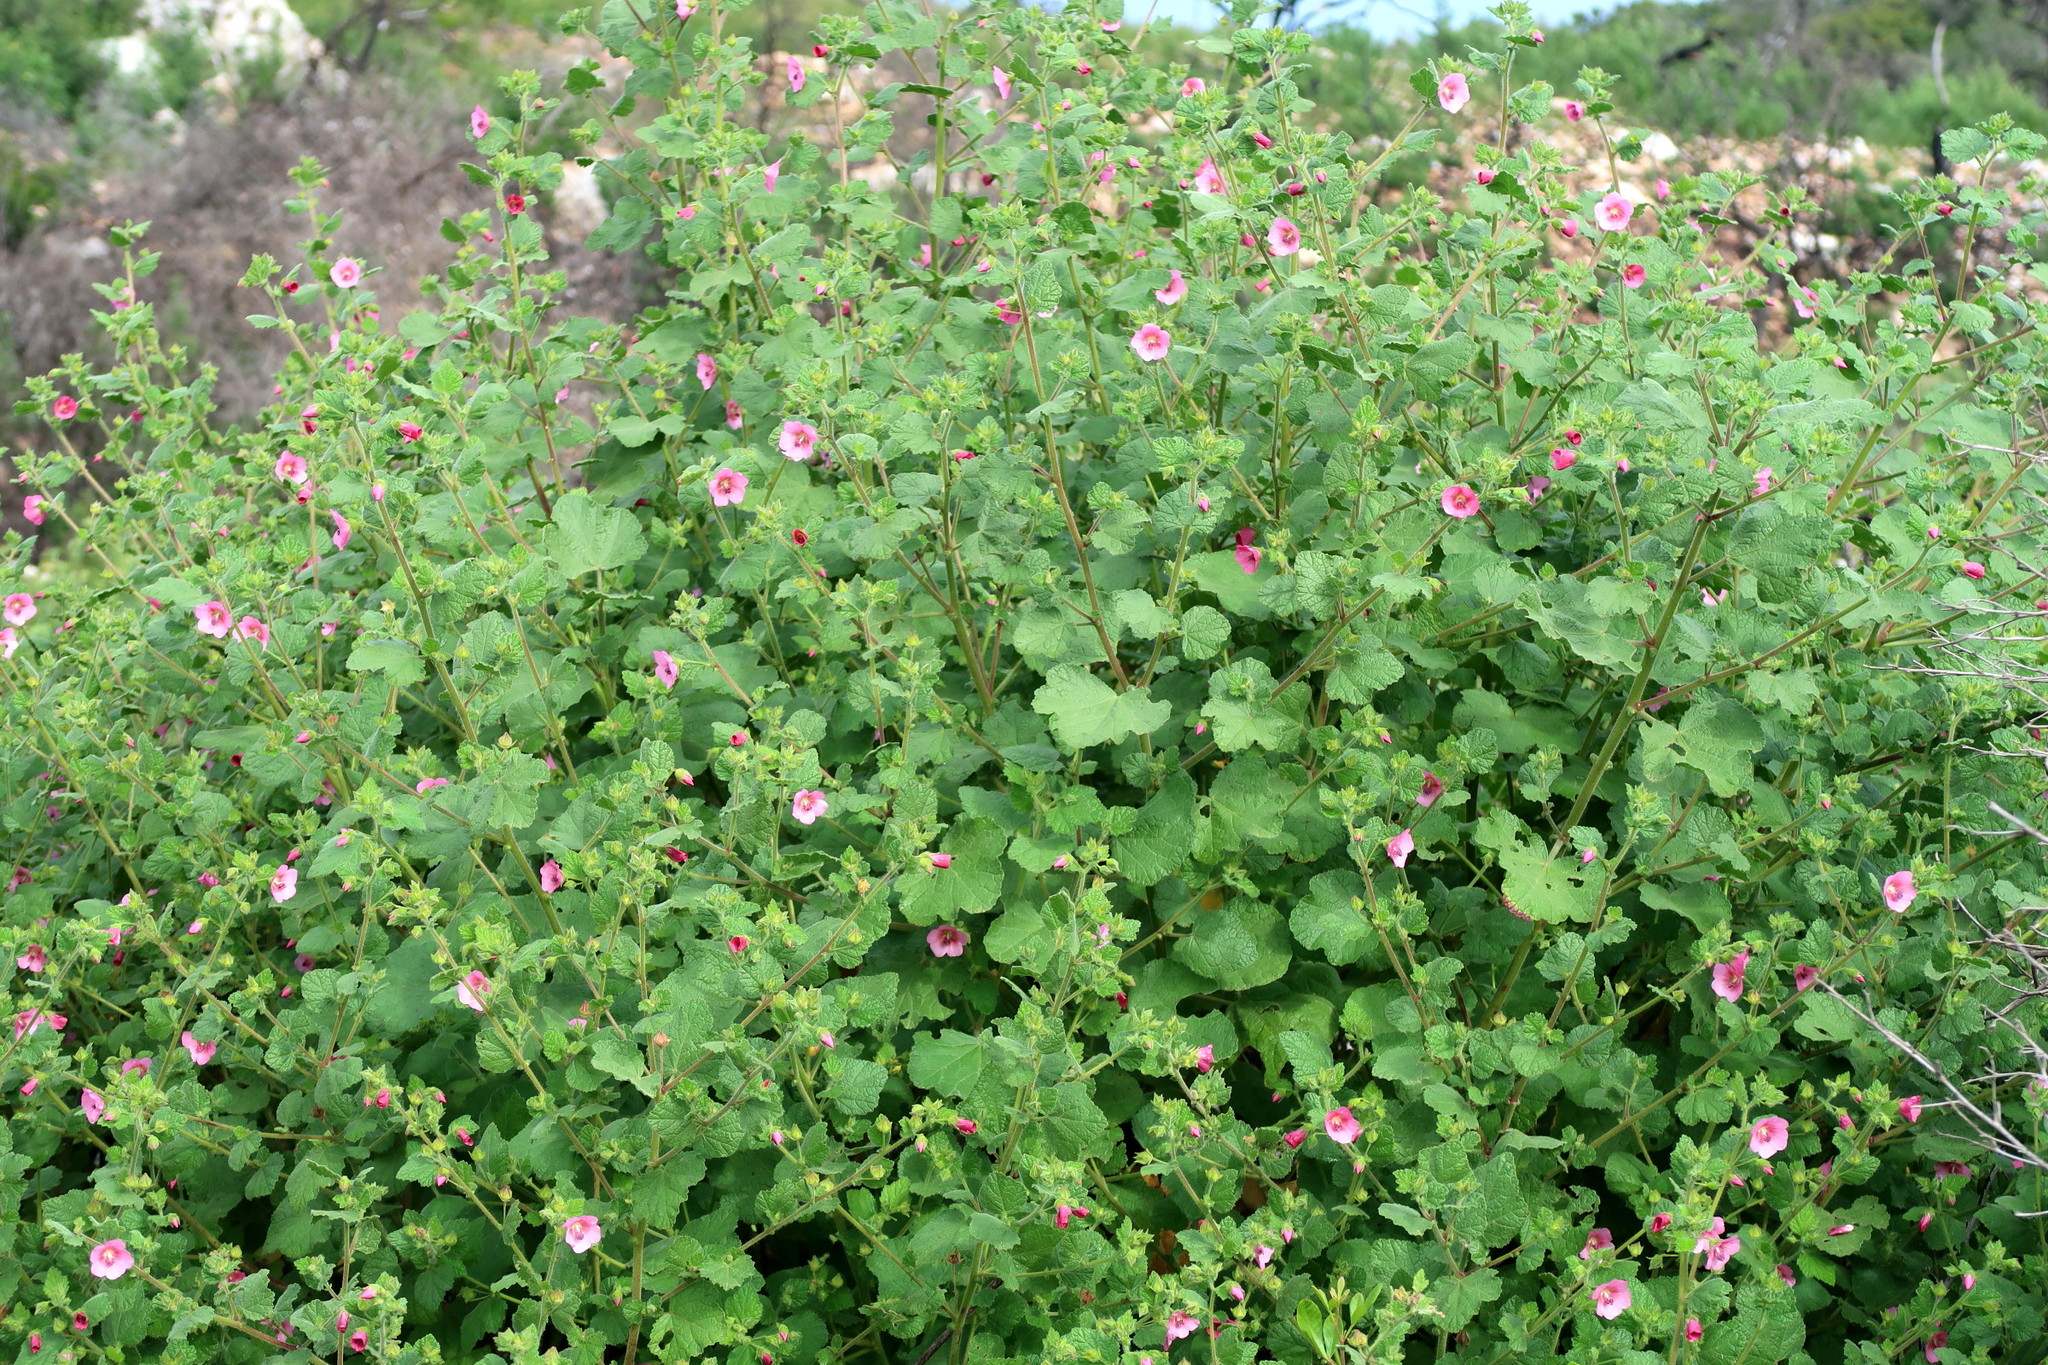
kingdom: Plantae
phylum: Tracheophyta
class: Magnoliopsida
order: Malvales
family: Malvaceae
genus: Anisodontea
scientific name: Anisodontea scabrosa
